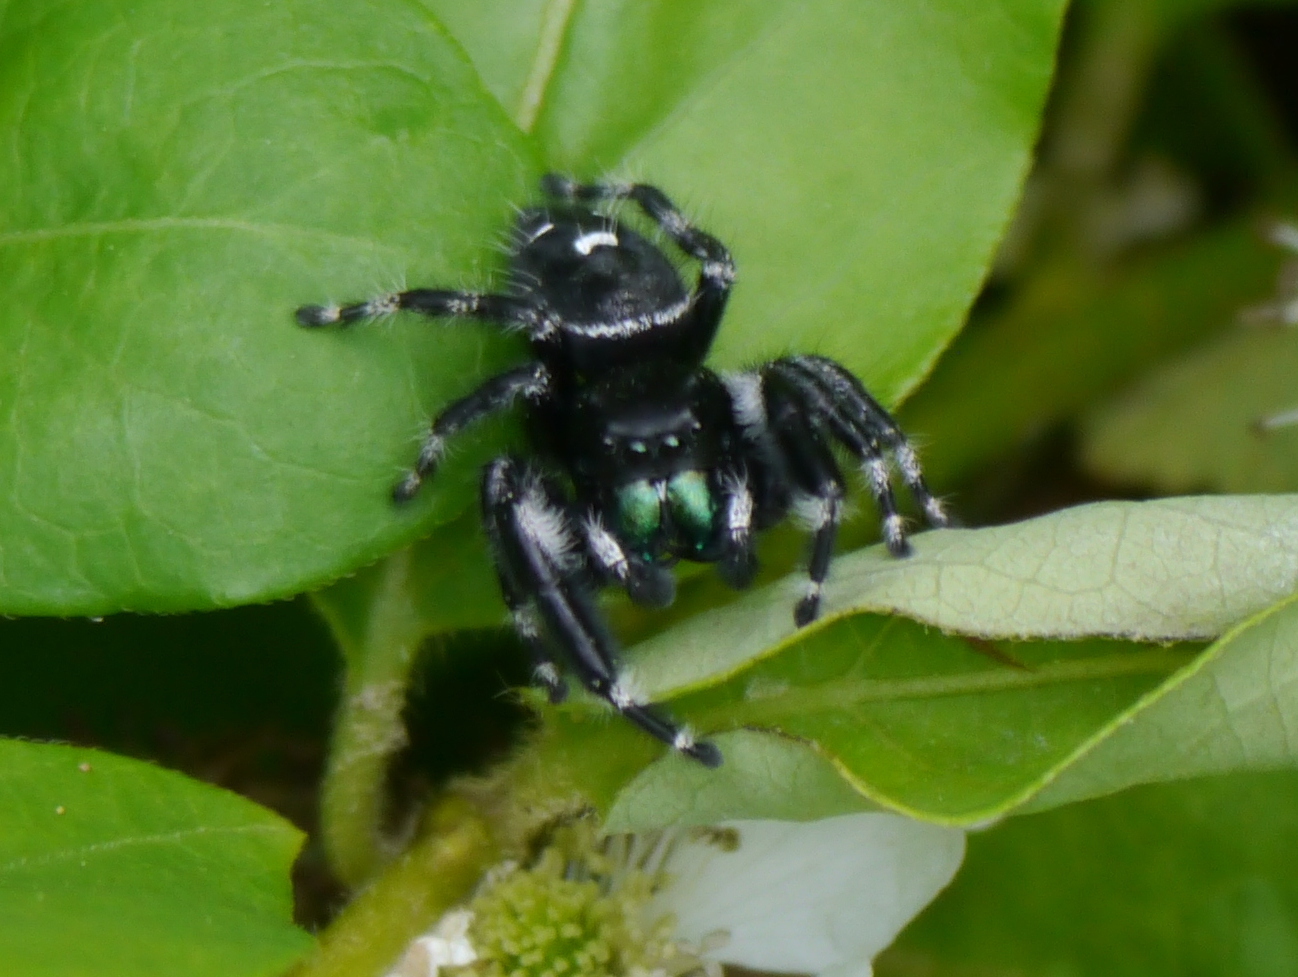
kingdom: Animalia
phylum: Arthropoda
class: Arachnida
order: Araneae
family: Salticidae
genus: Phidippus
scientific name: Phidippus audax
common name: Bold jumper
